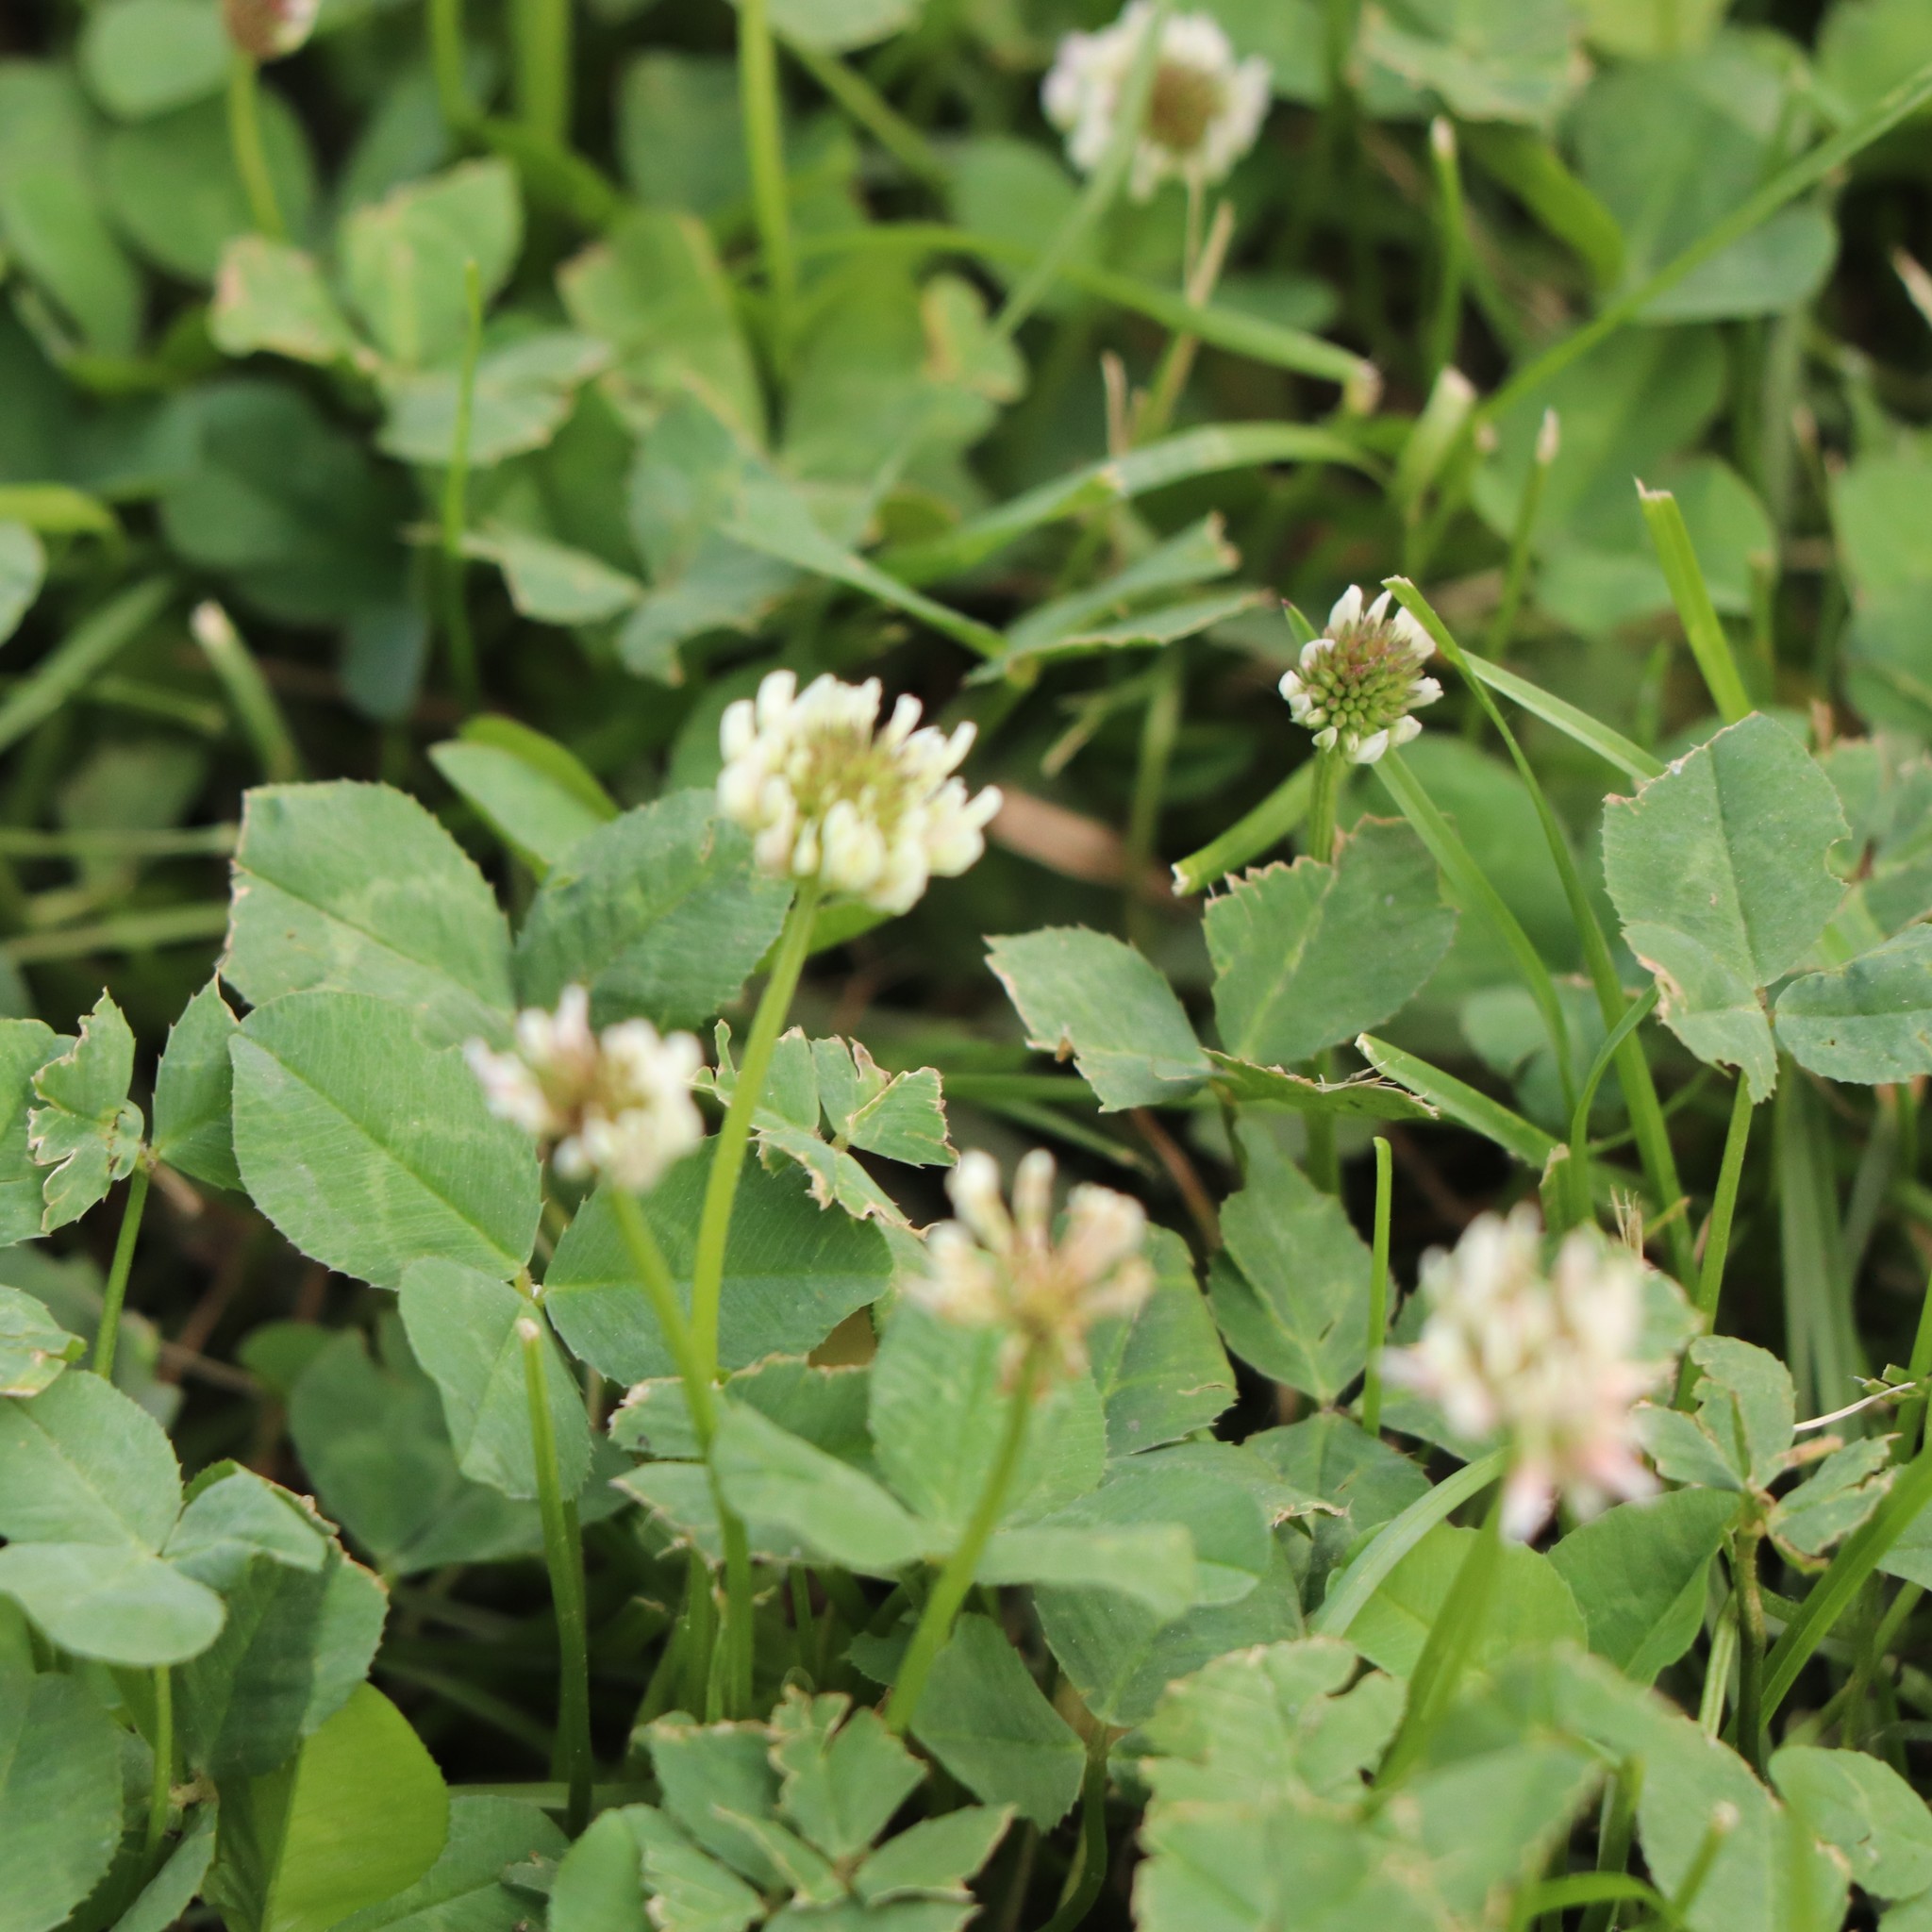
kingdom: Plantae
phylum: Tracheophyta
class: Magnoliopsida
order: Fabales
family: Fabaceae
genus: Trifolium
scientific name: Trifolium repens
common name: White clover
